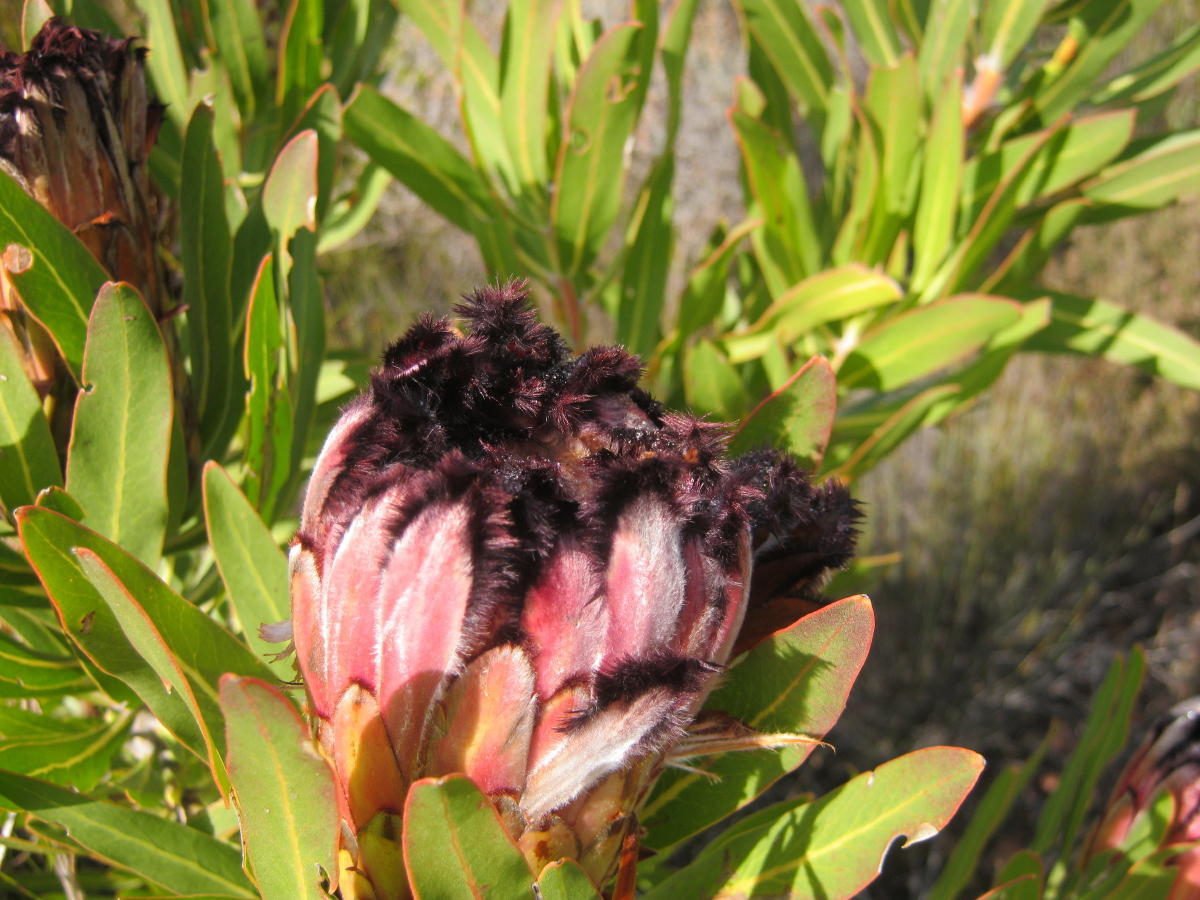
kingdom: Plantae
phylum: Tracheophyta
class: Magnoliopsida
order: Proteales
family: Proteaceae
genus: Protea
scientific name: Protea neriifolia
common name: Blue sugarbush
